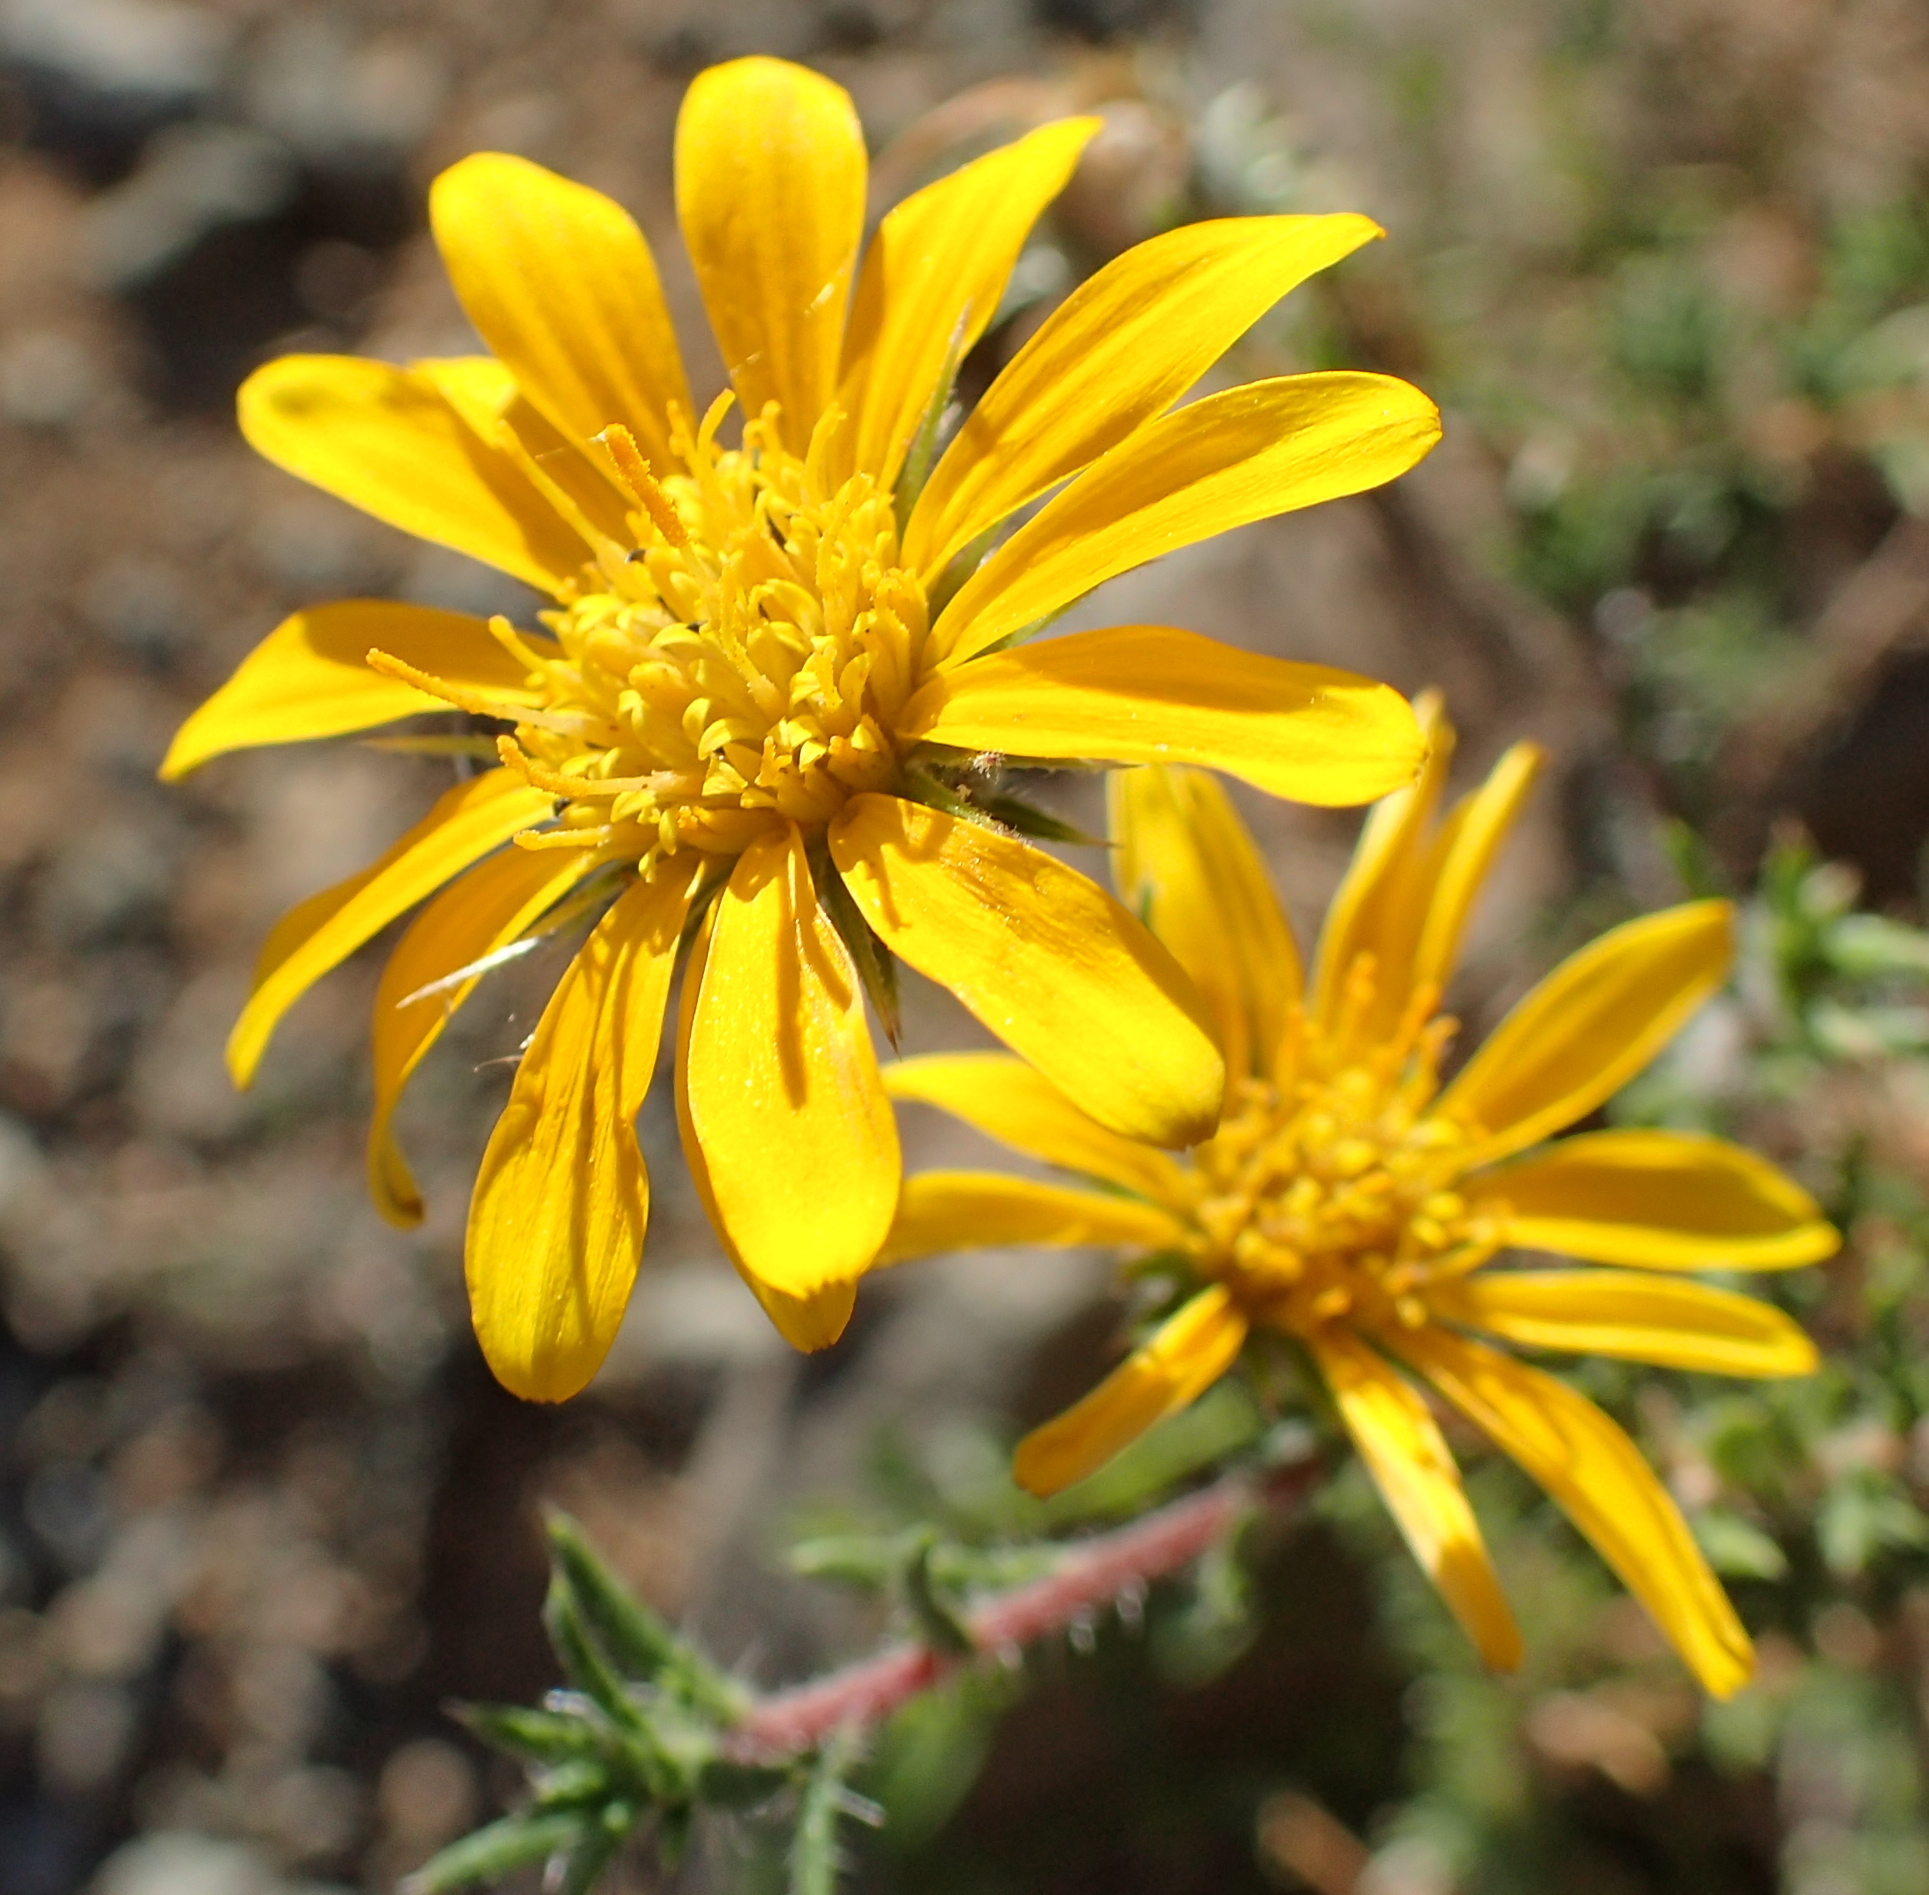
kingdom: Plantae
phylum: Tracheophyta
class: Magnoliopsida
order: Asterales
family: Asteraceae
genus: Gorteria
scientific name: Gorteria alienata
